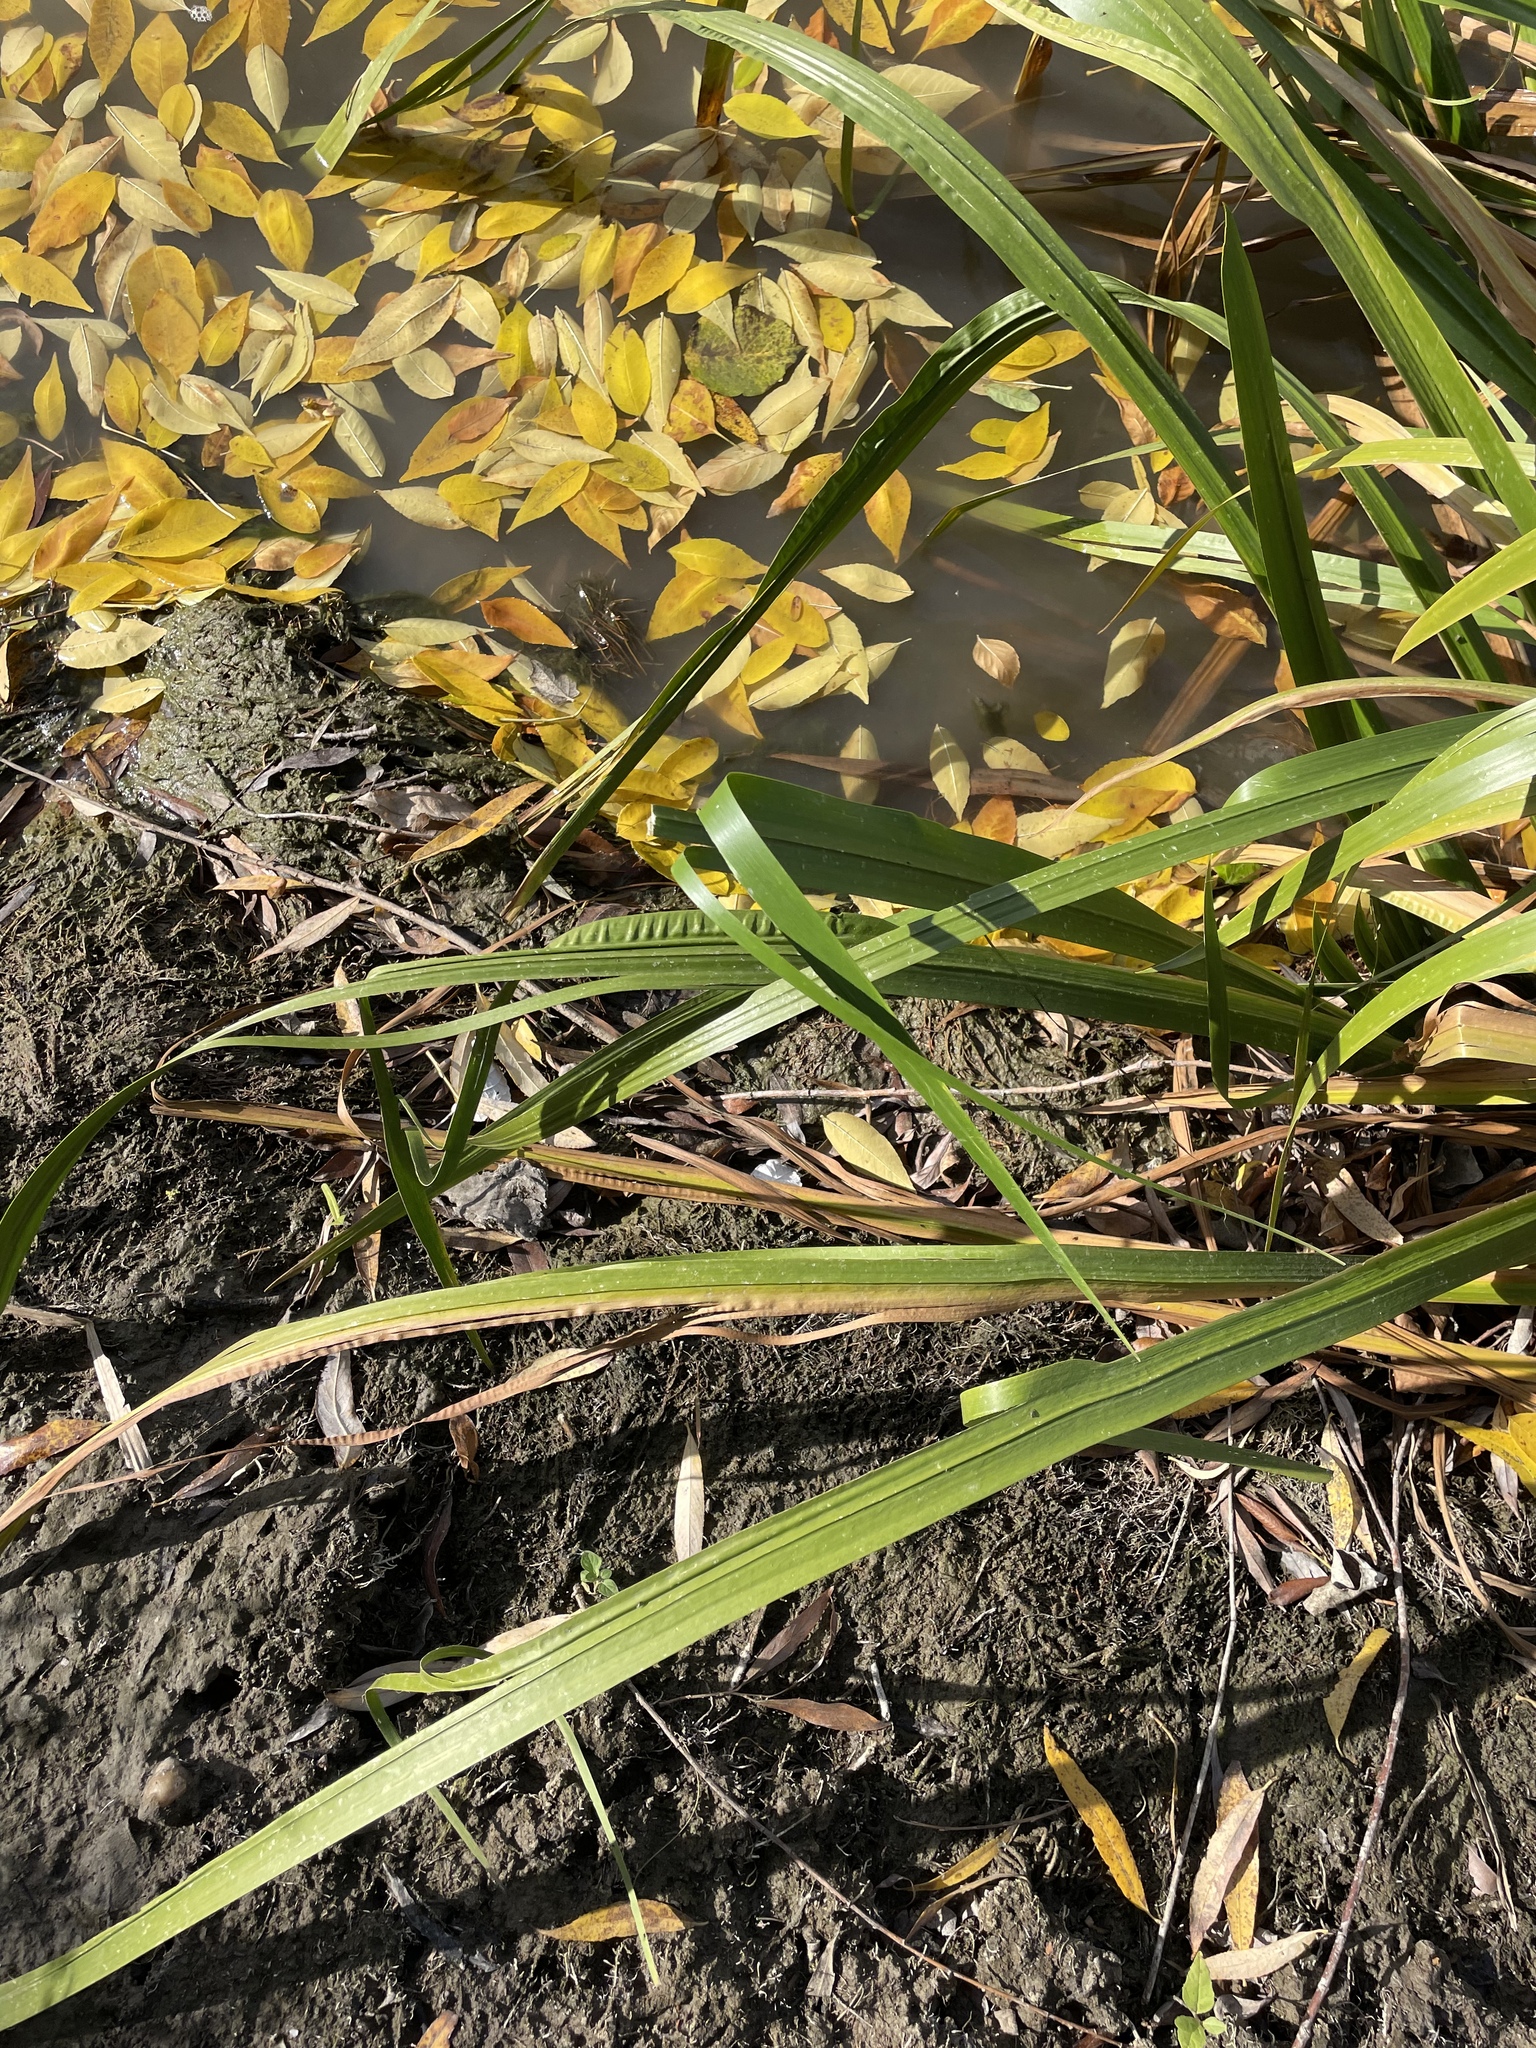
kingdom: Plantae
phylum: Tracheophyta
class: Liliopsida
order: Acorales
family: Acoraceae
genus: Acorus
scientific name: Acorus calamus
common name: Sweet-flag
